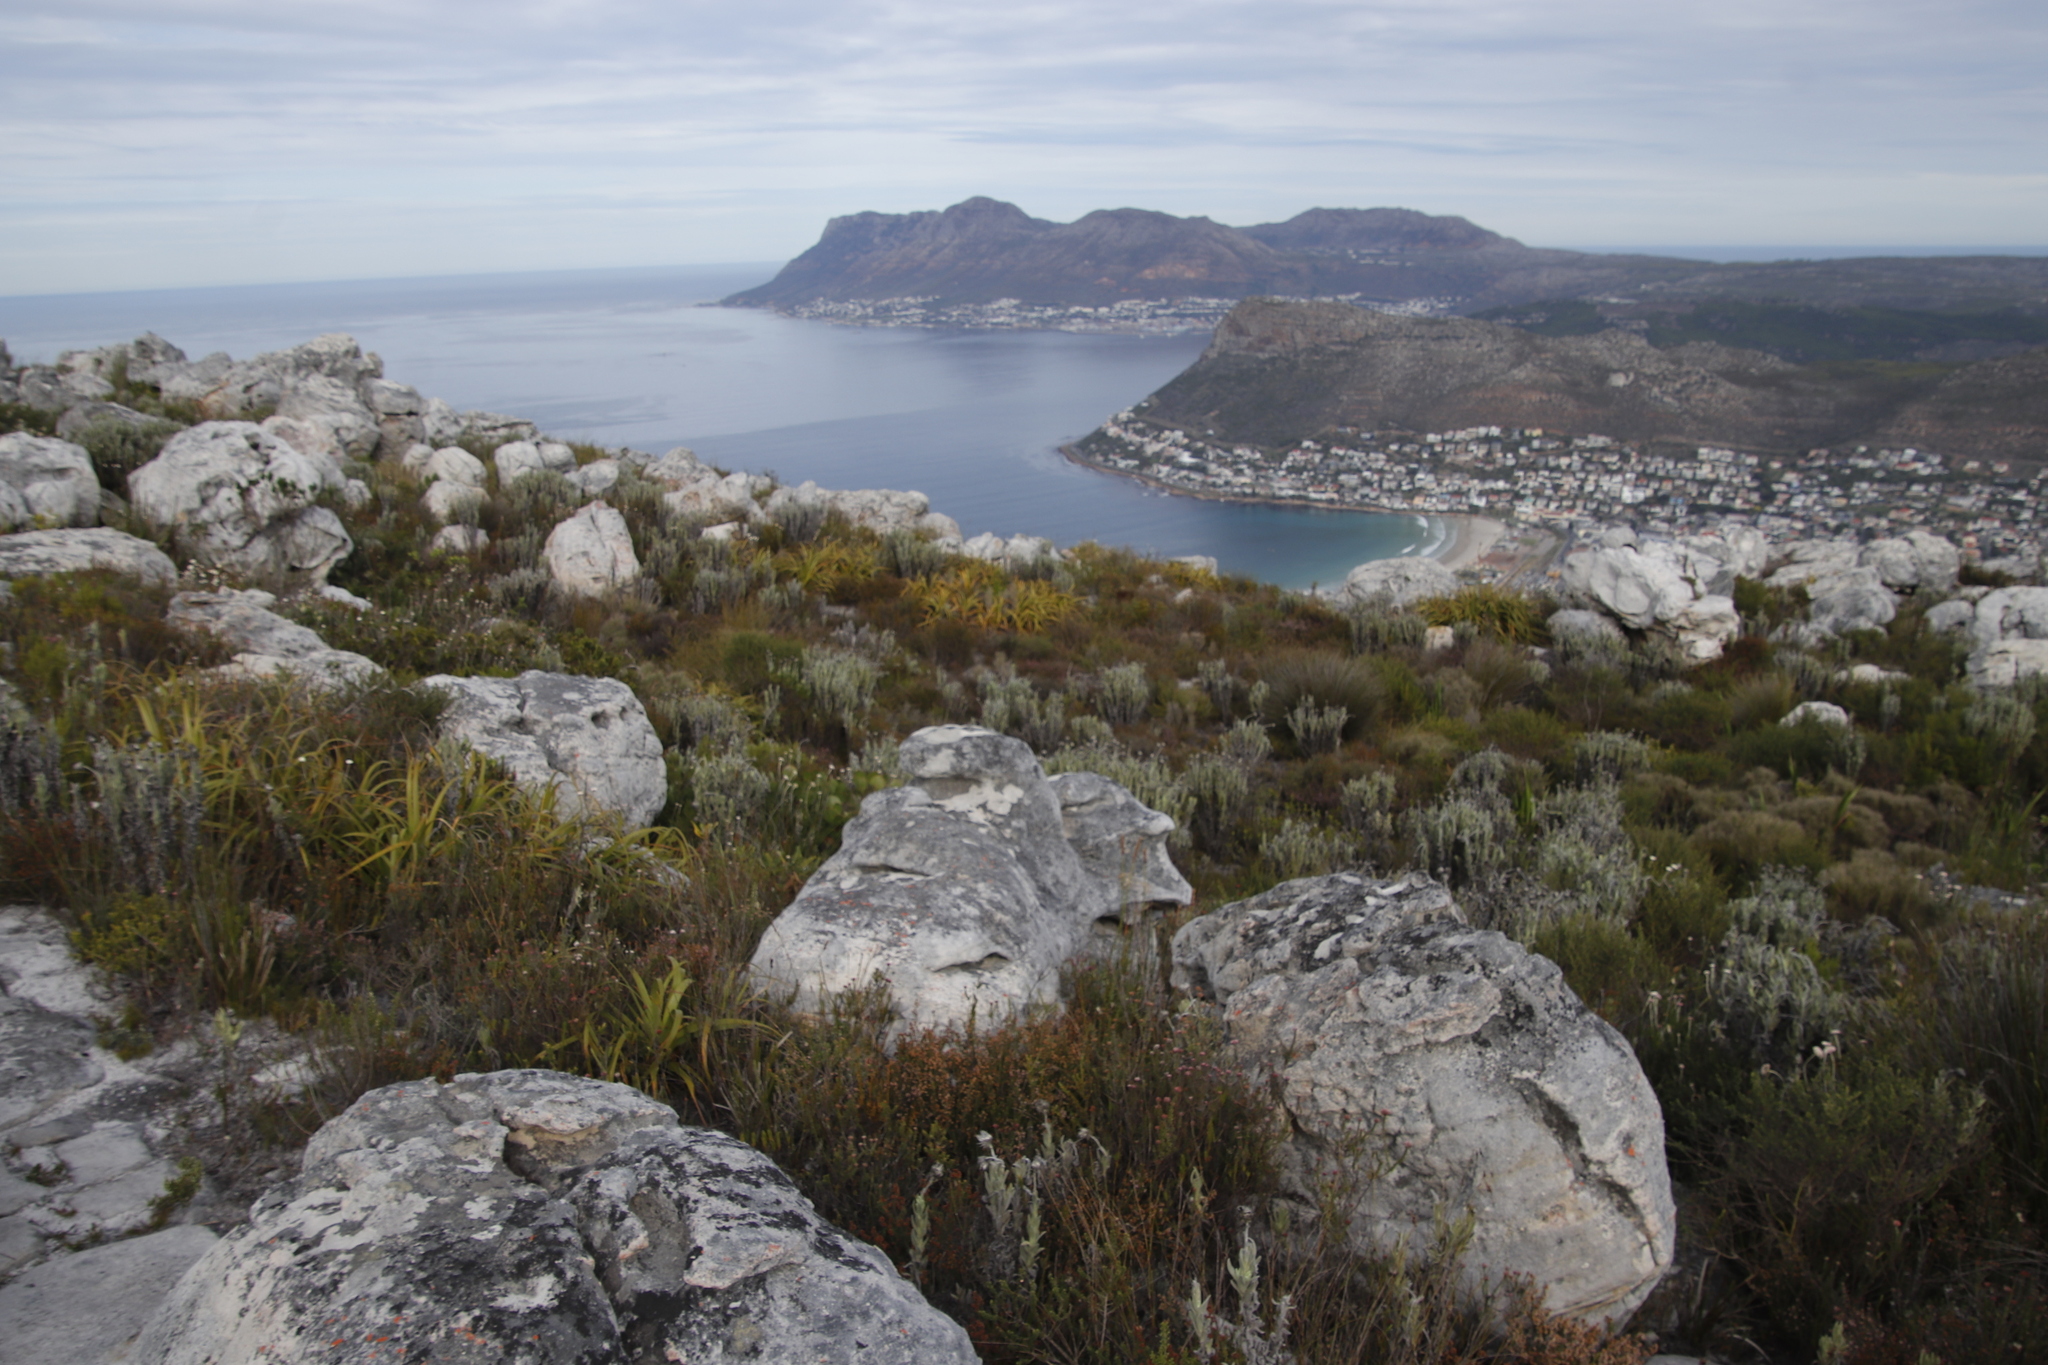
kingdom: Plantae
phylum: Tracheophyta
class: Magnoliopsida
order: Asterales
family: Asteraceae
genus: Syncarpha
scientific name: Syncarpha vestita
